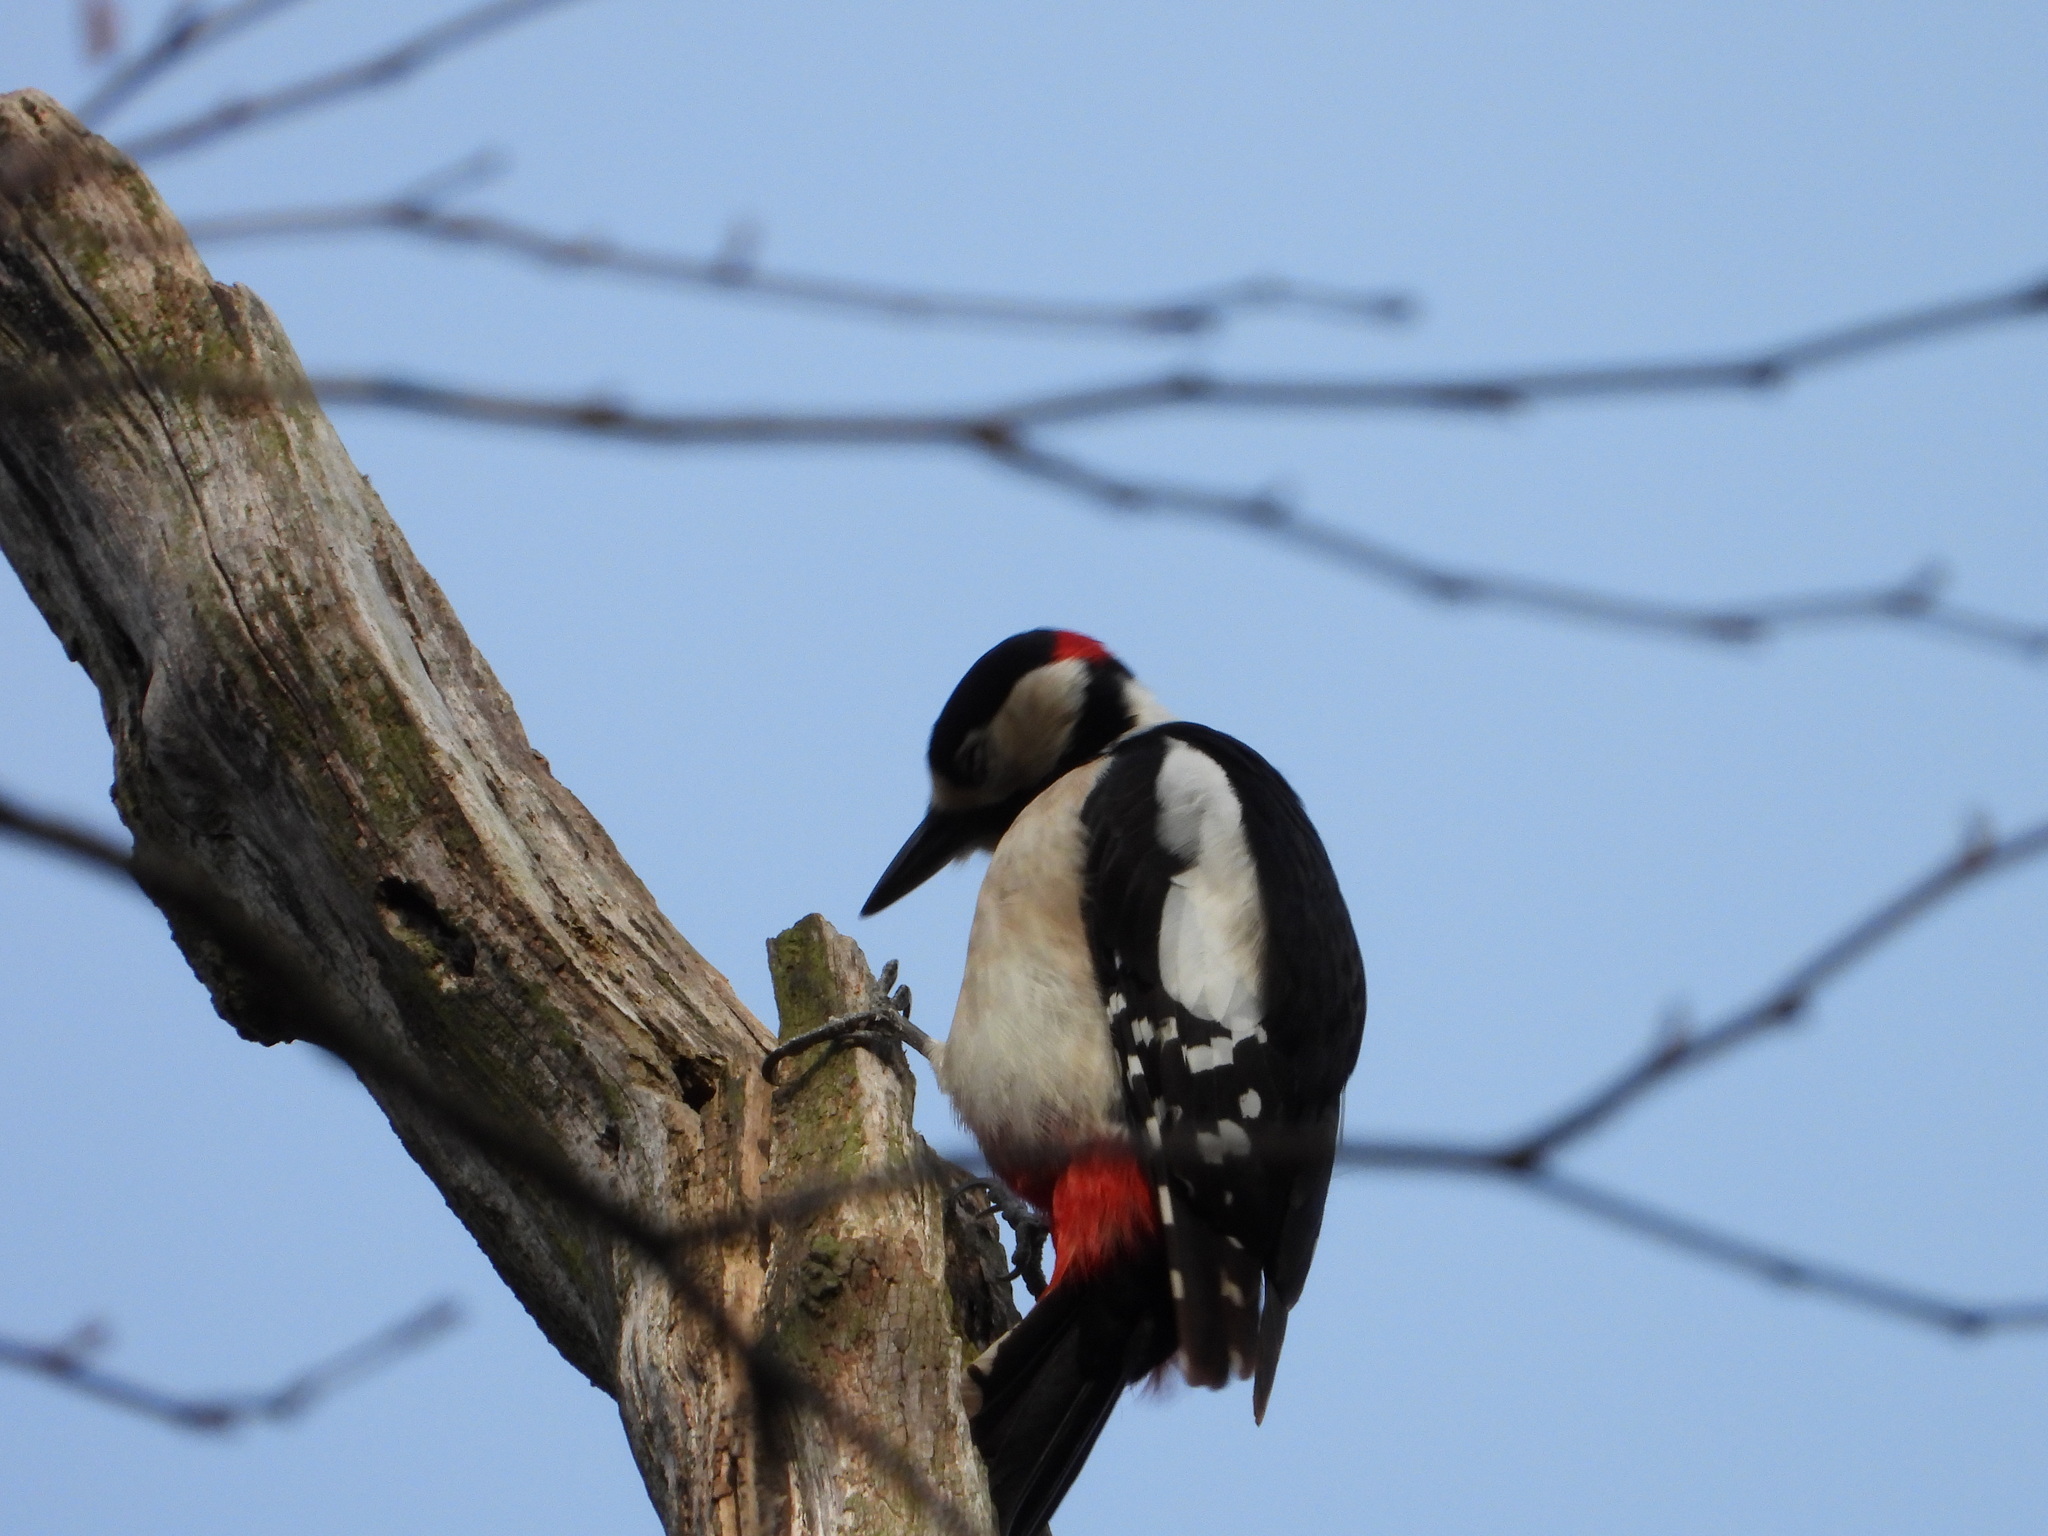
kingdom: Animalia
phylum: Chordata
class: Aves
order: Piciformes
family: Picidae
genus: Dendrocopos
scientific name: Dendrocopos major
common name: Great spotted woodpecker
